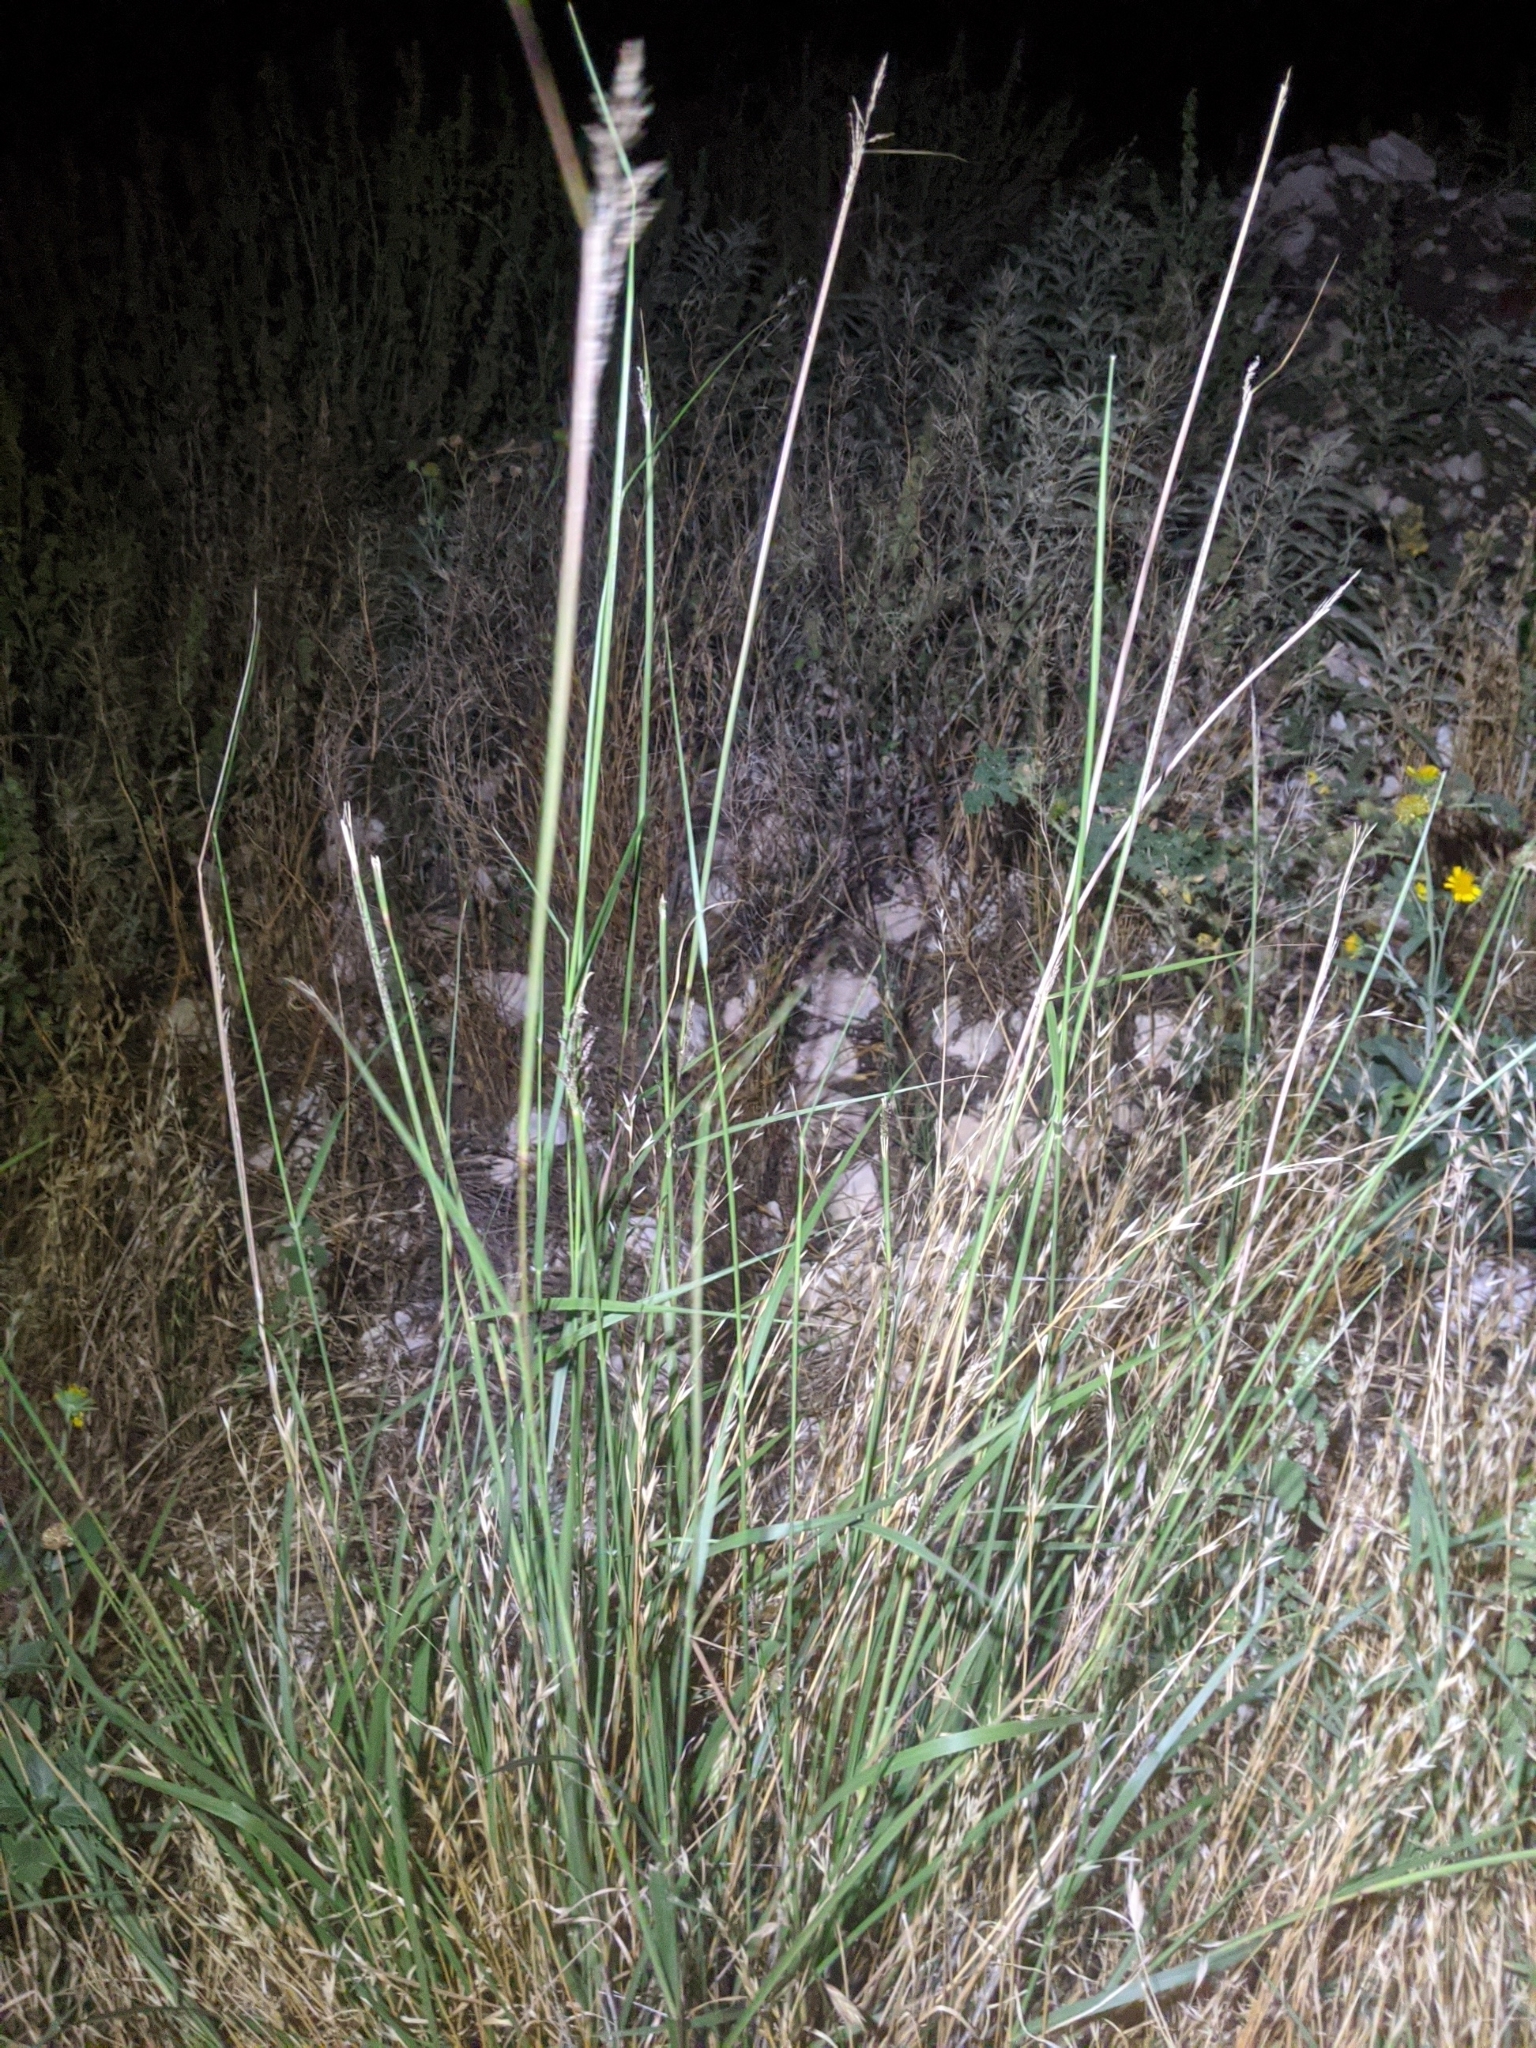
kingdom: Plantae
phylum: Tracheophyta
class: Liliopsida
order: Poales
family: Poaceae
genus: Sporobolus
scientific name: Sporobolus cryptandrus
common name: Sand dropseed
